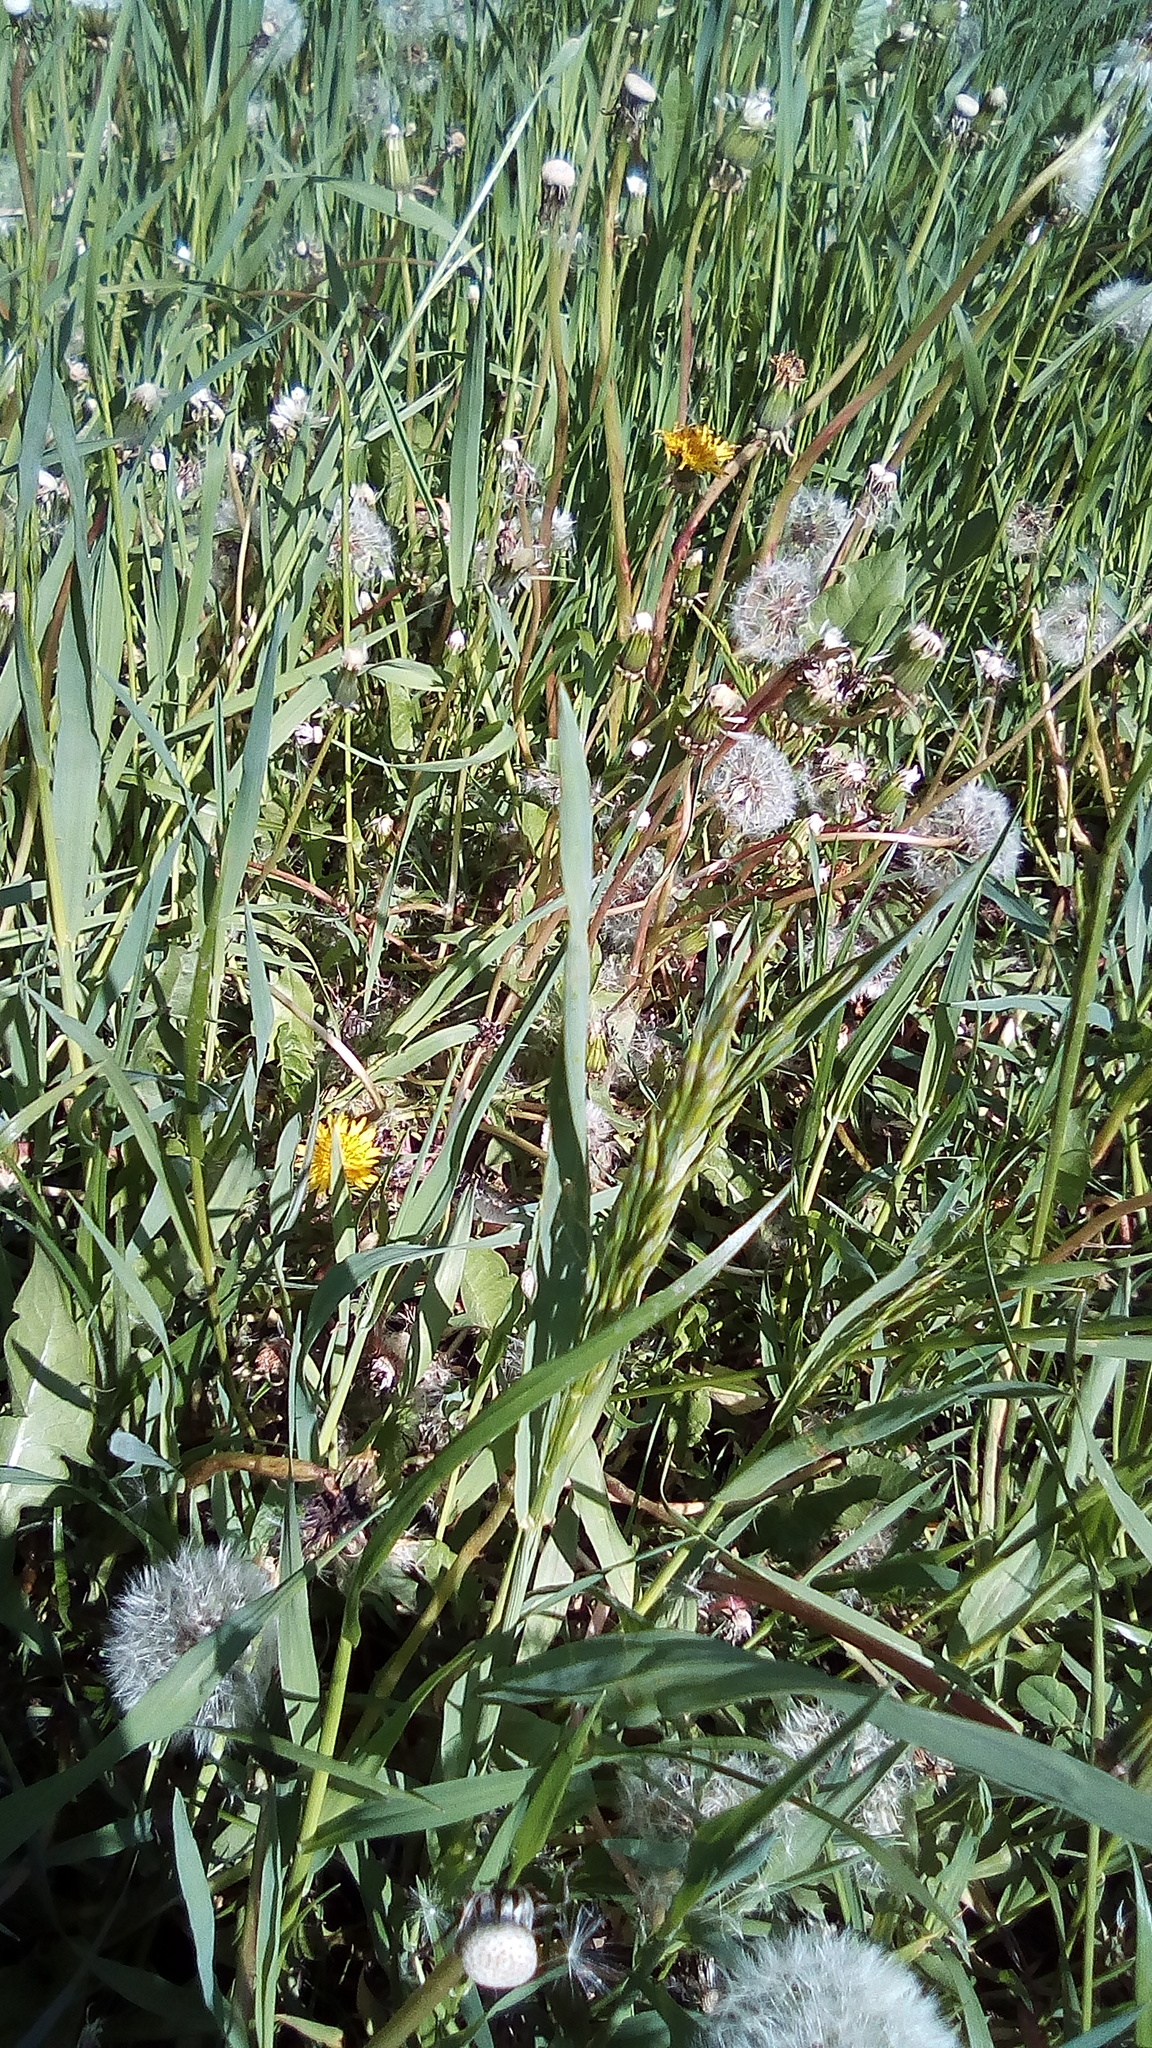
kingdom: Plantae
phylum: Tracheophyta
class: Magnoliopsida
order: Asterales
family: Asteraceae
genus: Taraxacum
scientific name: Taraxacum officinale
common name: Common dandelion
